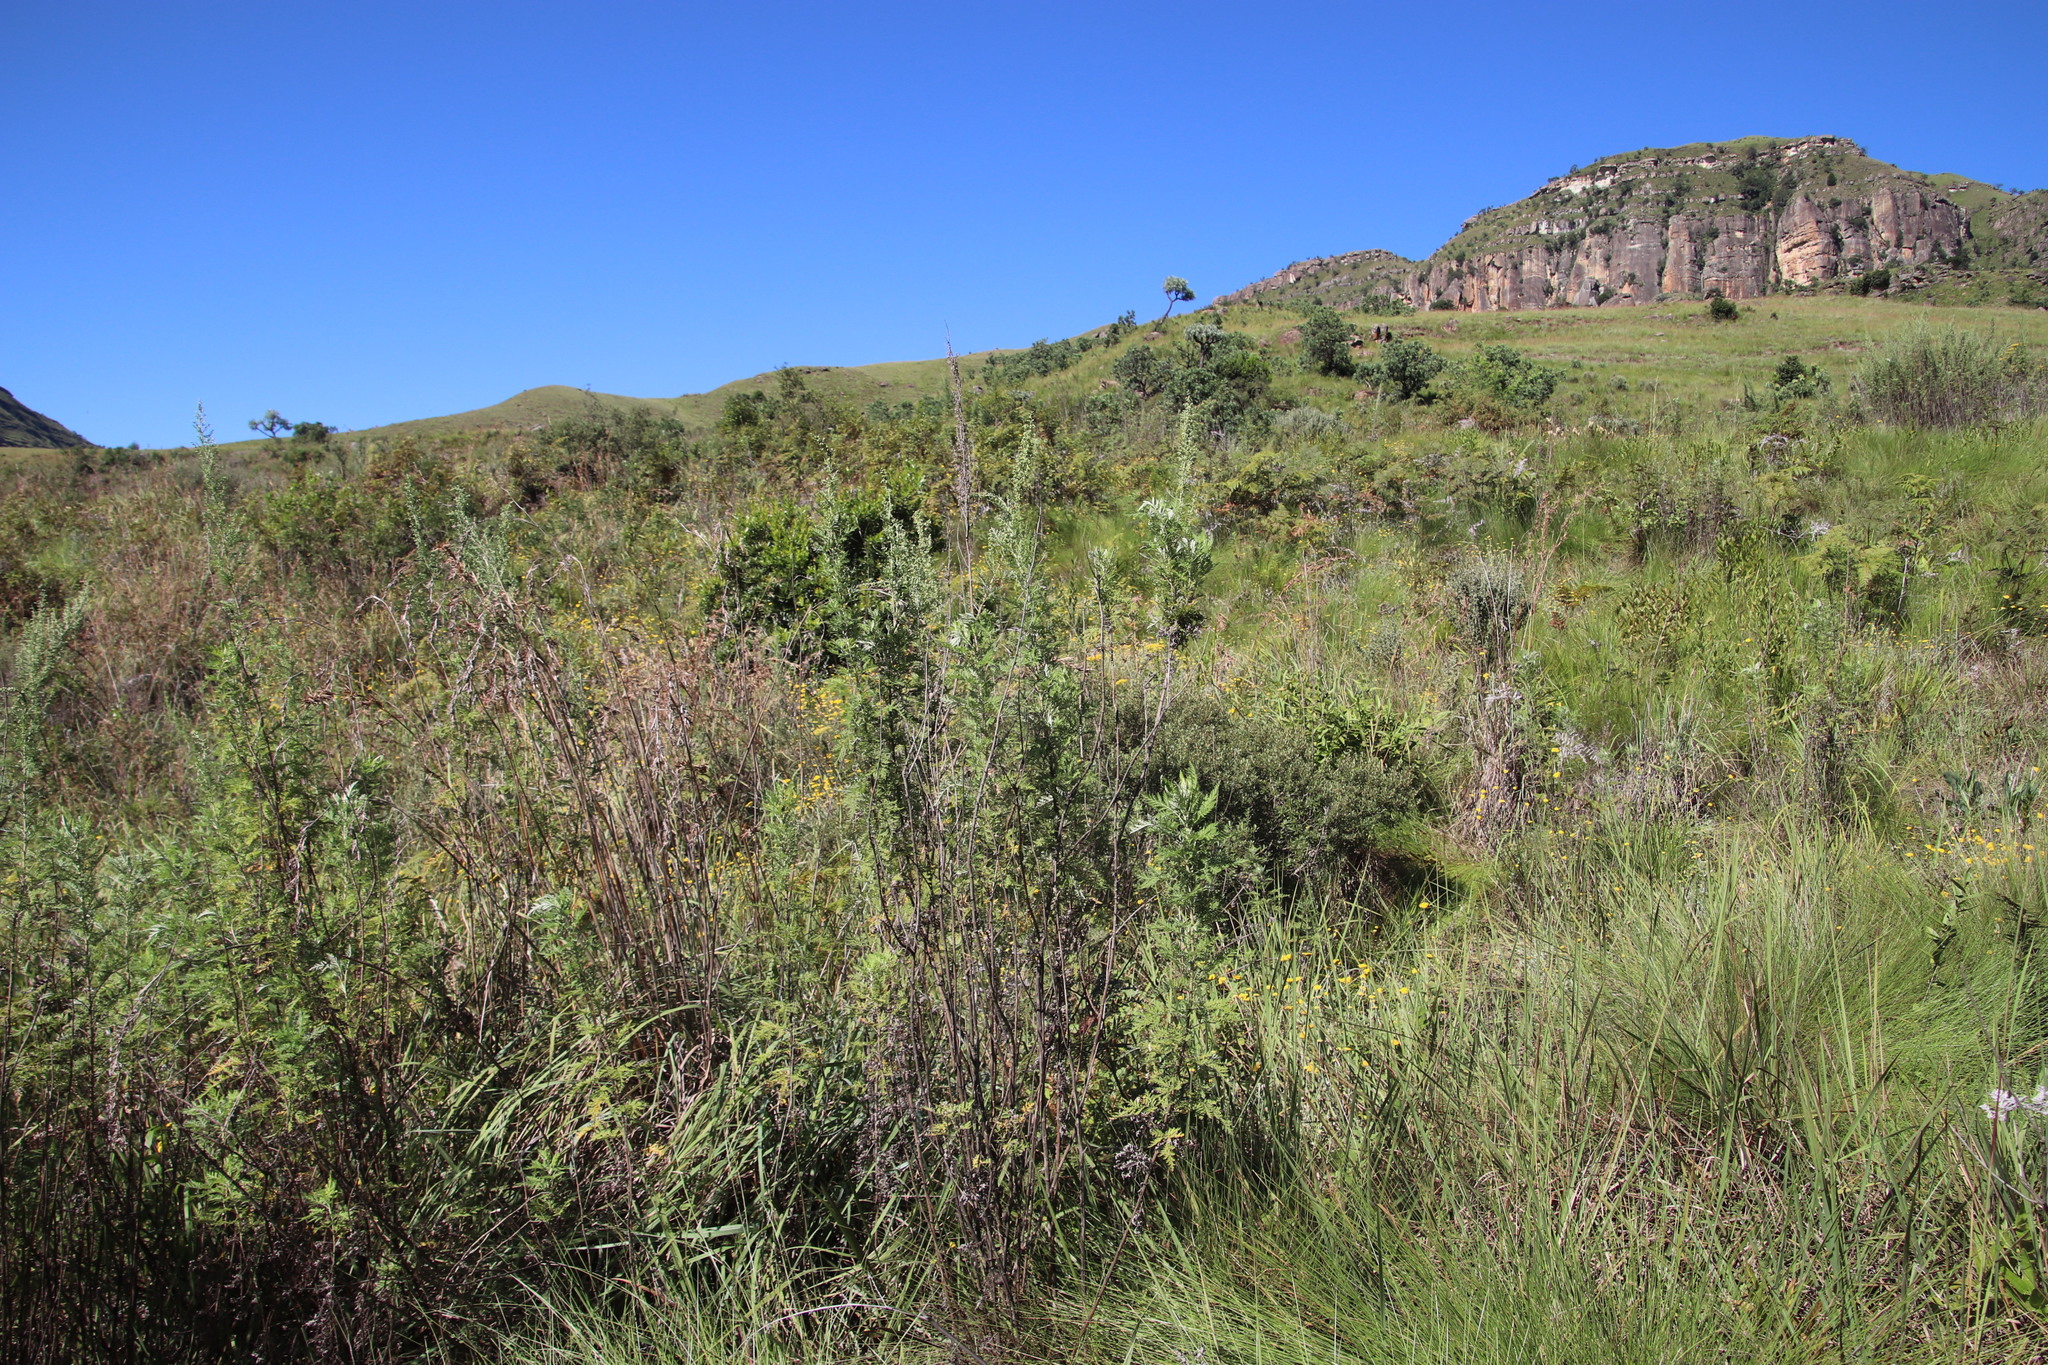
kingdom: Plantae
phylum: Tracheophyta
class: Magnoliopsida
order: Asterales
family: Asteraceae
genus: Artemisia
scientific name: Artemisia afra
